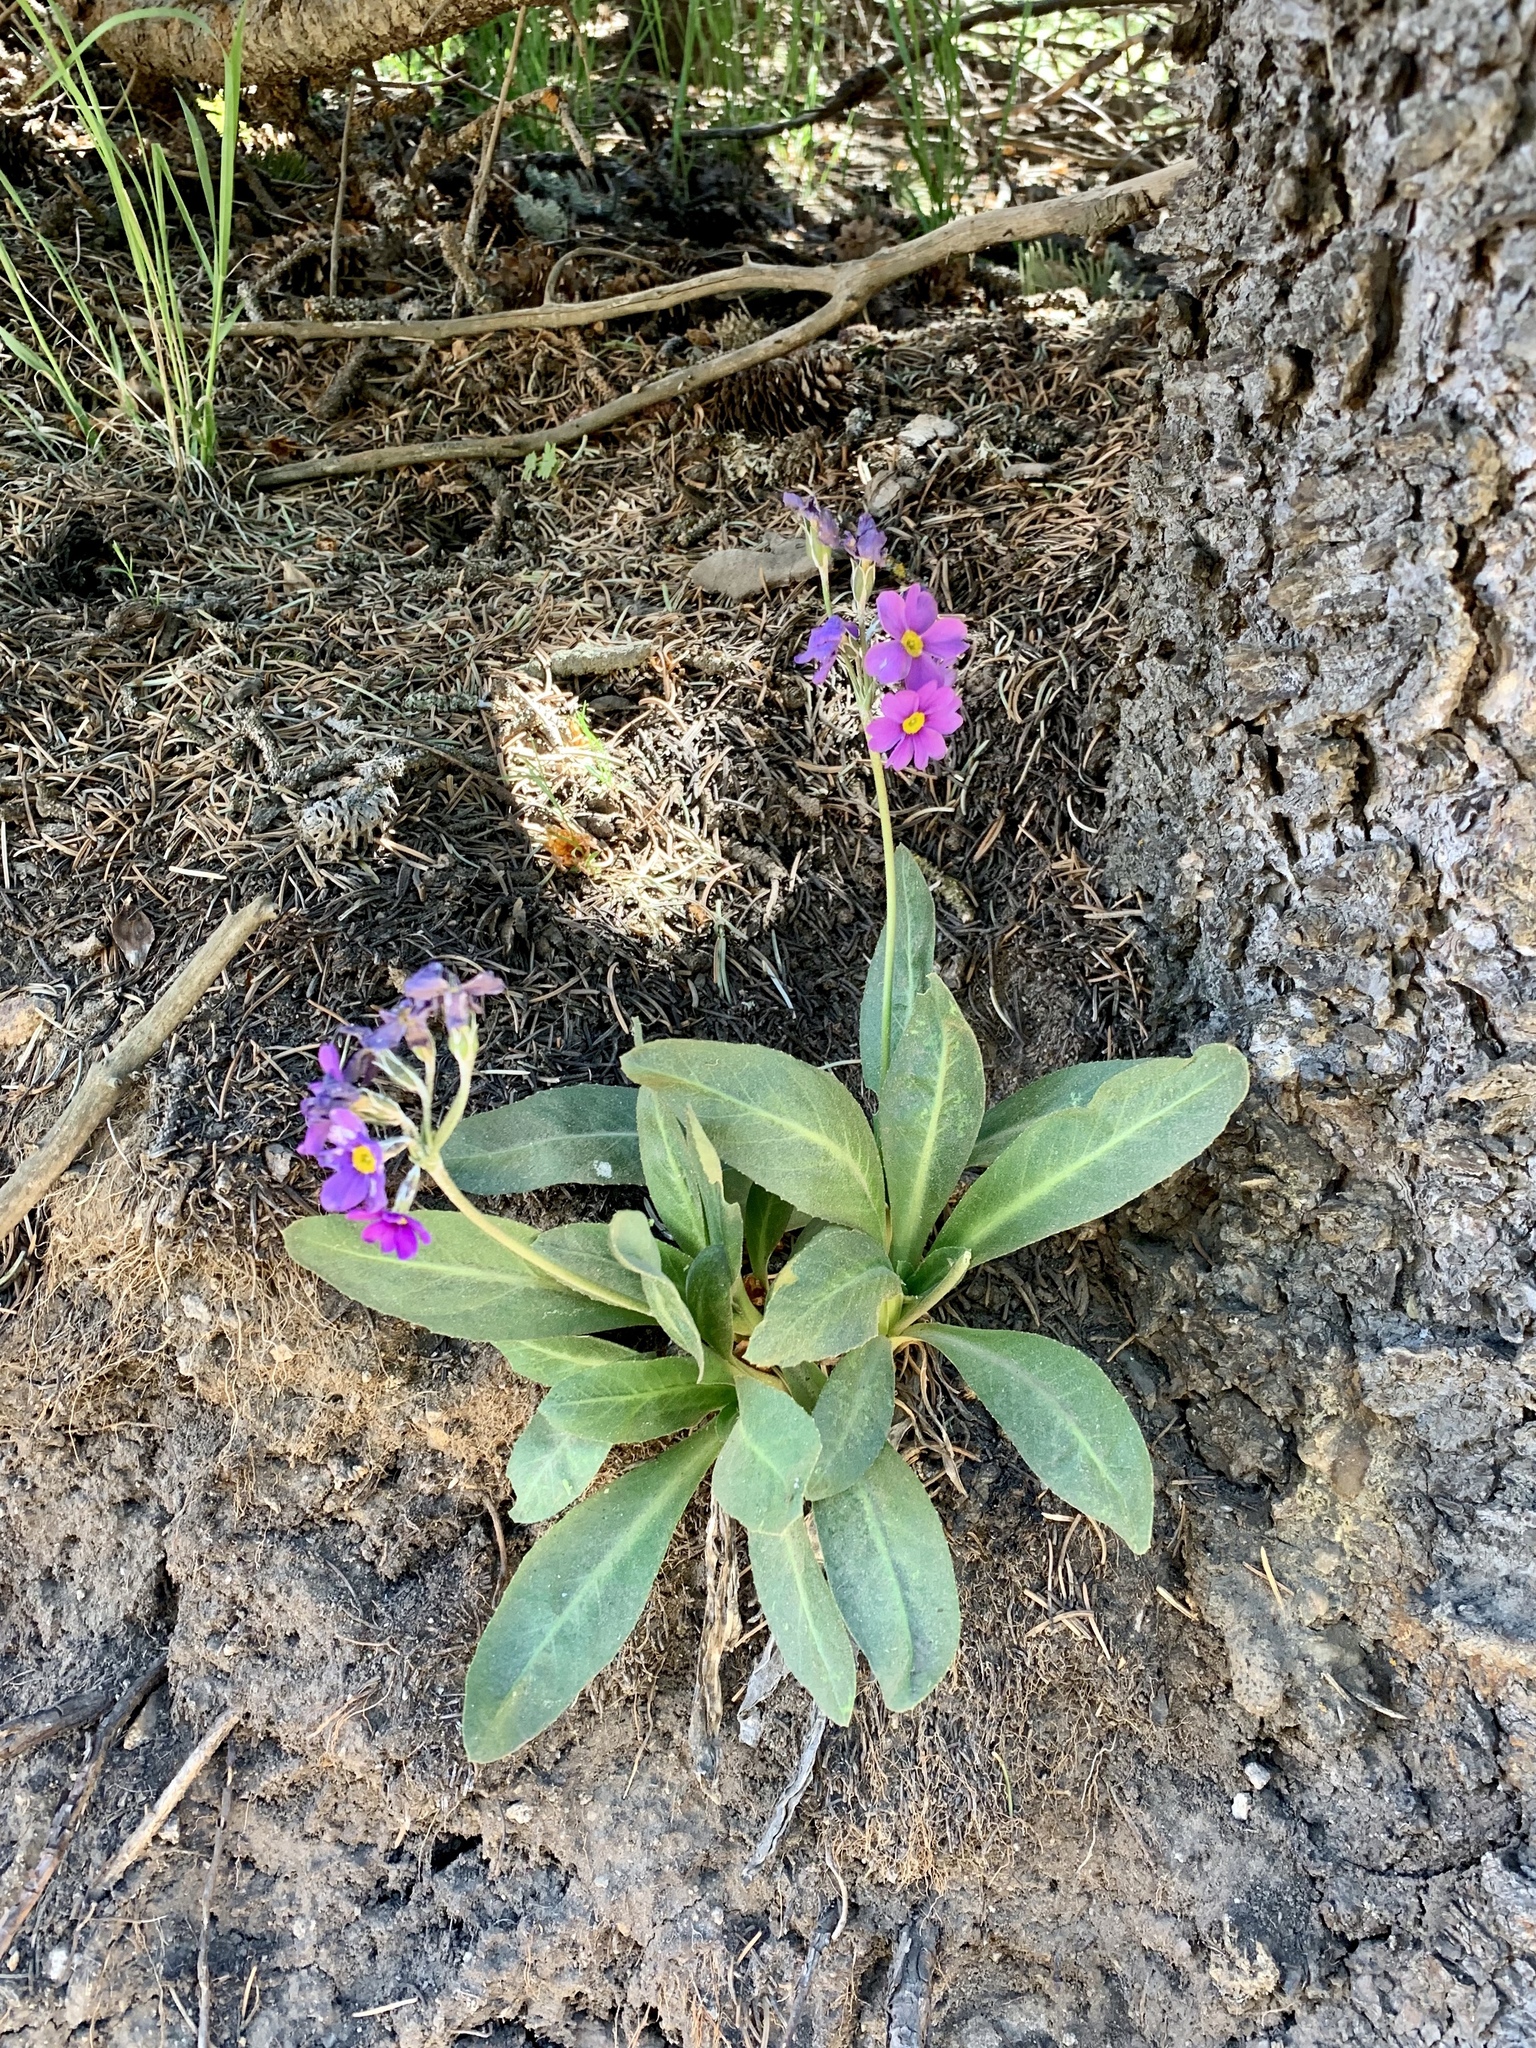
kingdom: Plantae
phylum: Tracheophyta
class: Magnoliopsida
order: Ericales
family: Primulaceae
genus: Primula
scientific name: Primula rusbyi
